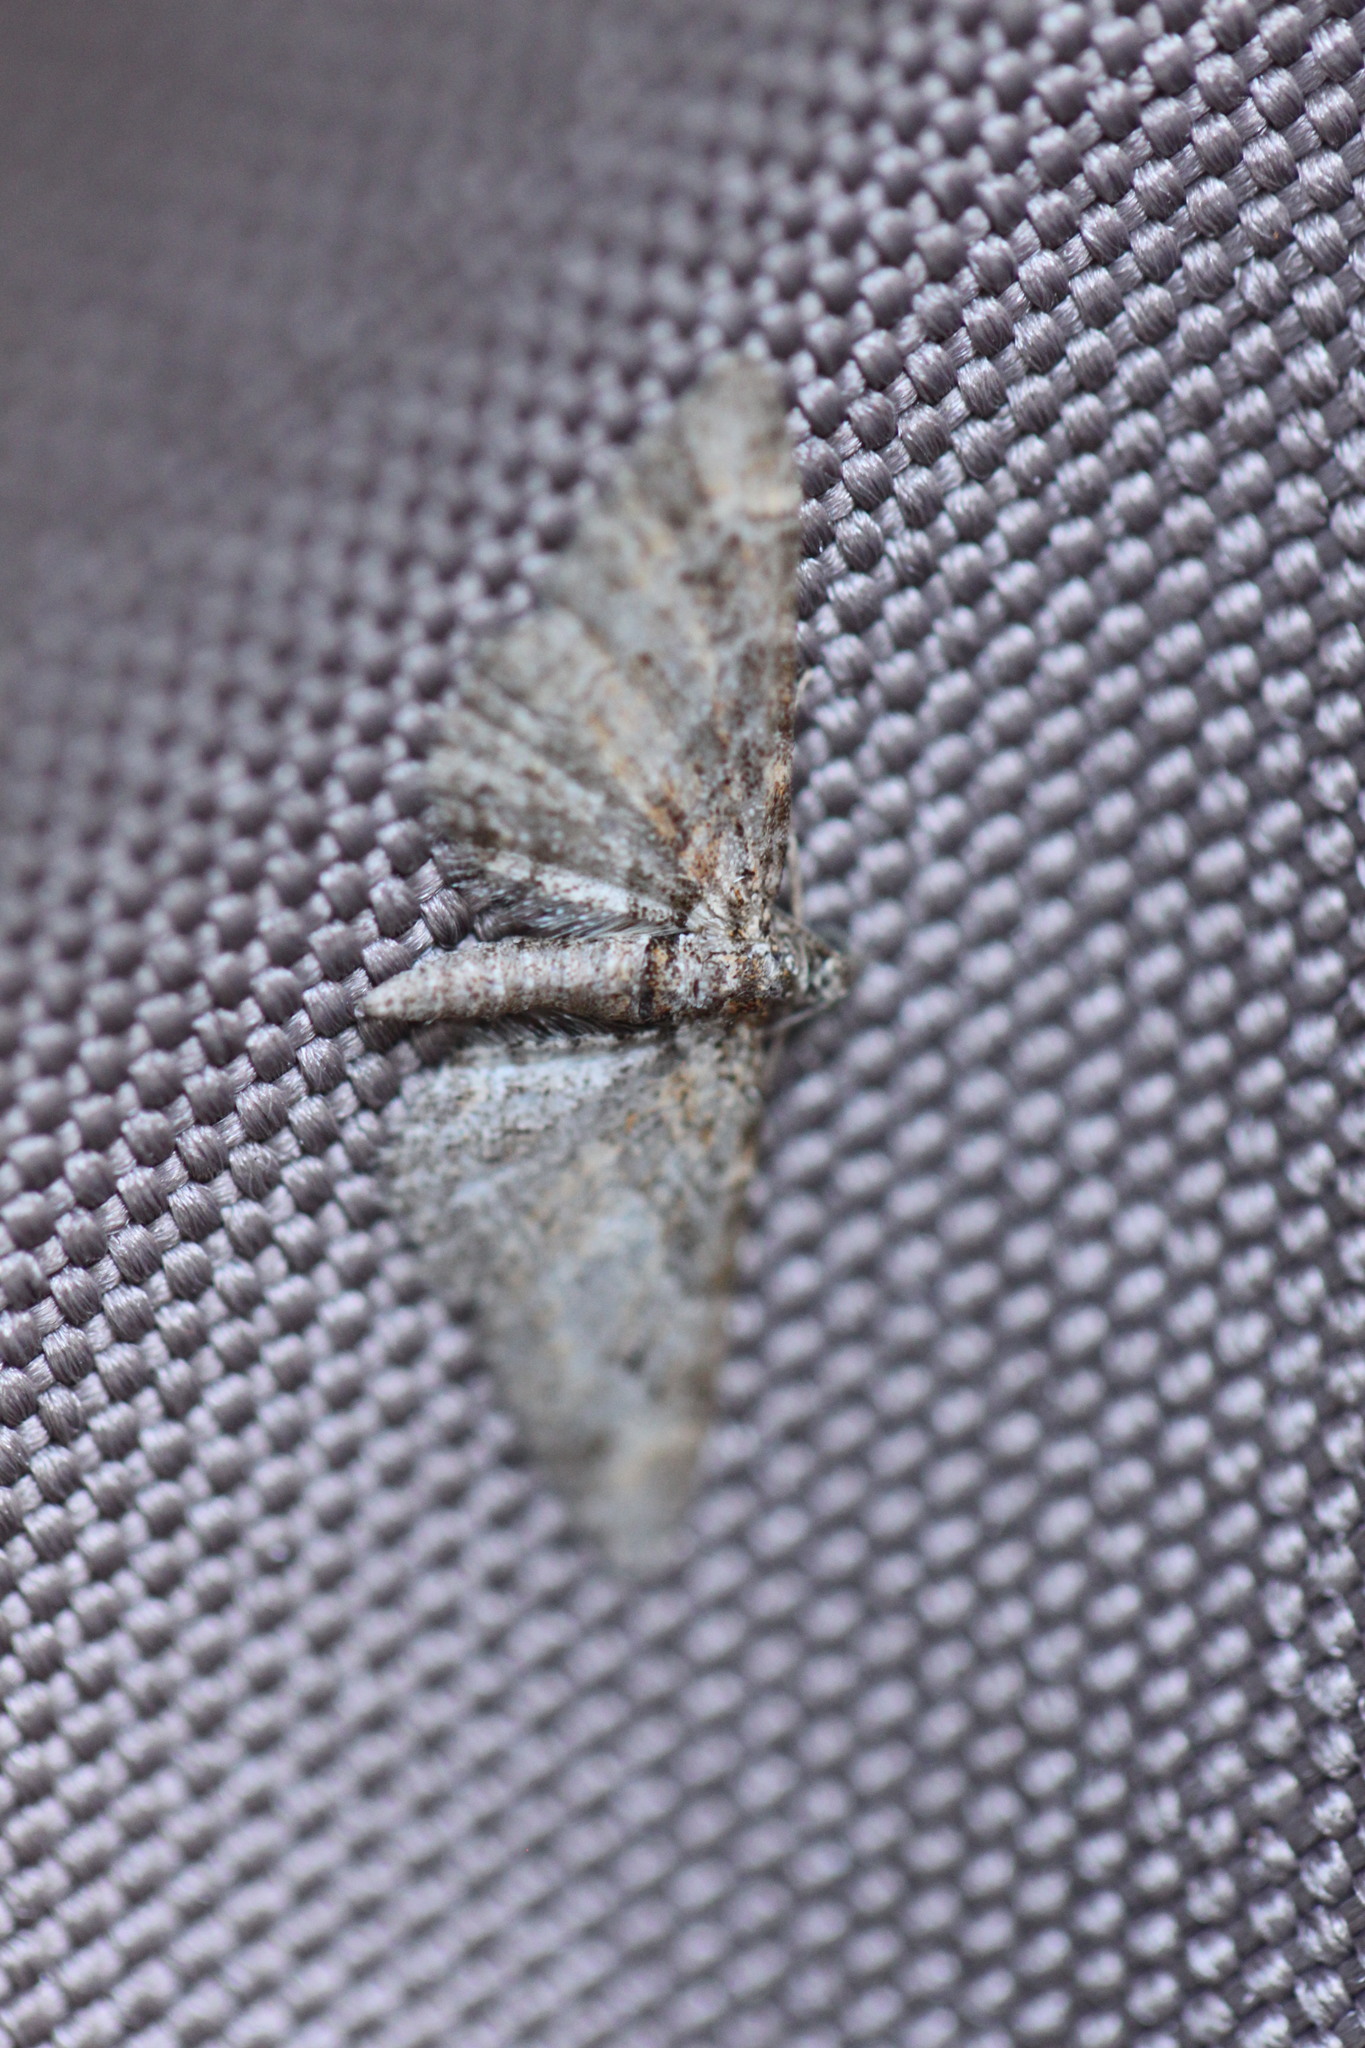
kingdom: Animalia
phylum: Arthropoda
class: Insecta
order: Lepidoptera
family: Geometridae
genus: Gymnoscelis
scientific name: Gymnoscelis rufifasciata
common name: Double-striped pug
